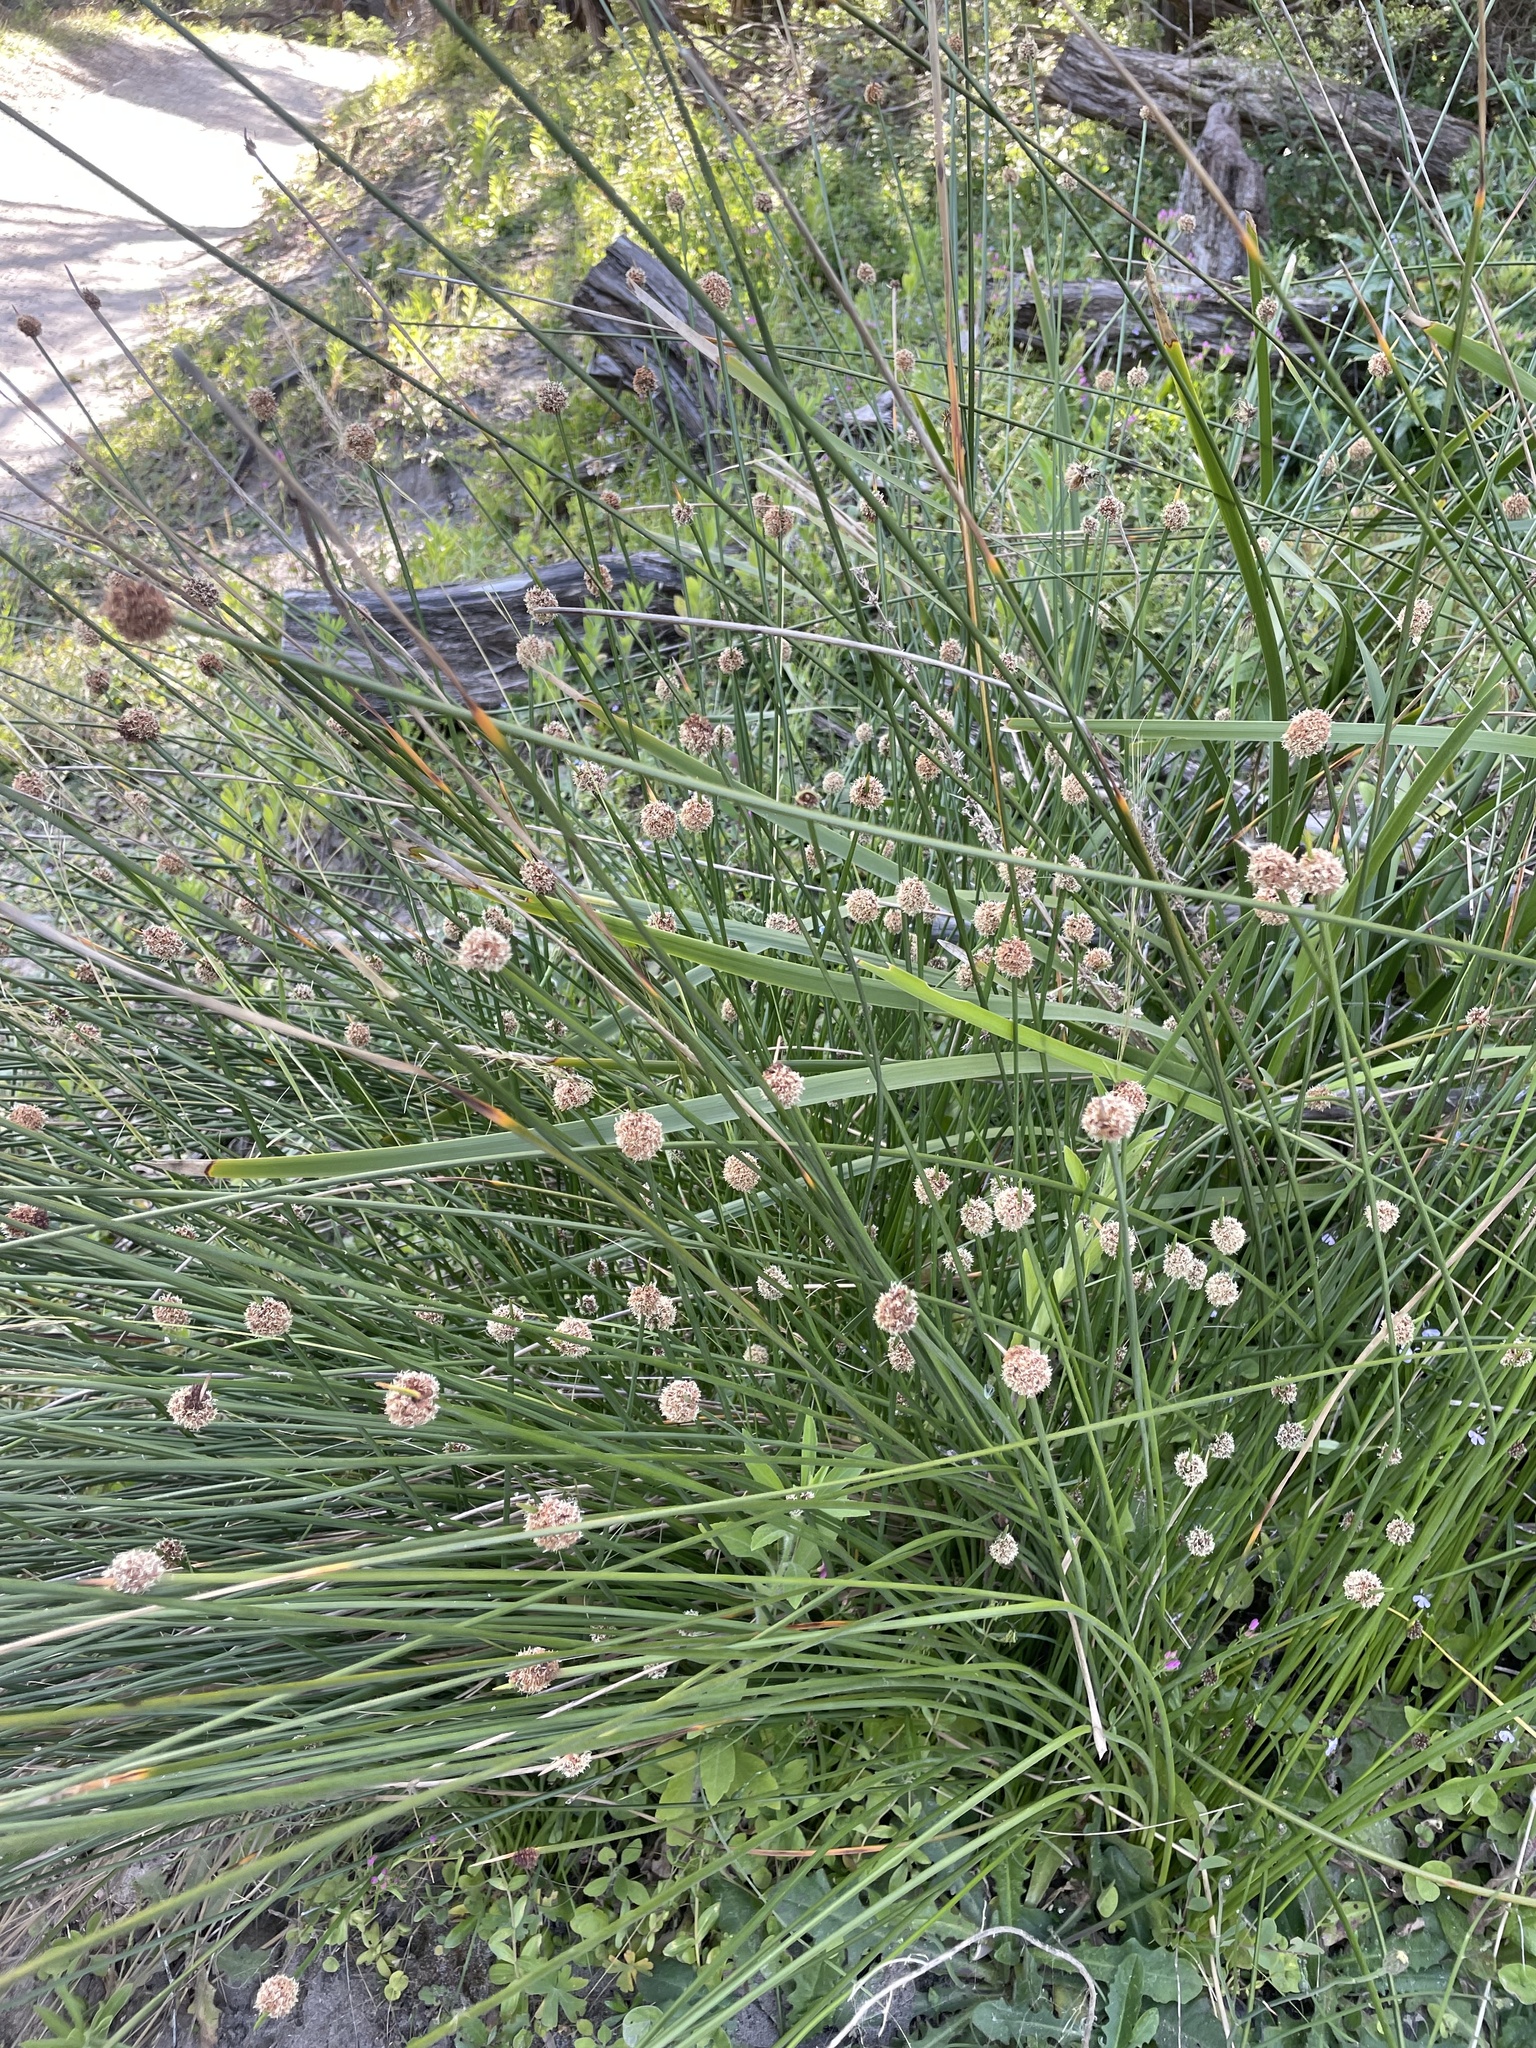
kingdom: Plantae
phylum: Tracheophyta
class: Liliopsida
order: Poales
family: Cyperaceae
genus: Ficinia
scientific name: Ficinia nodosa
